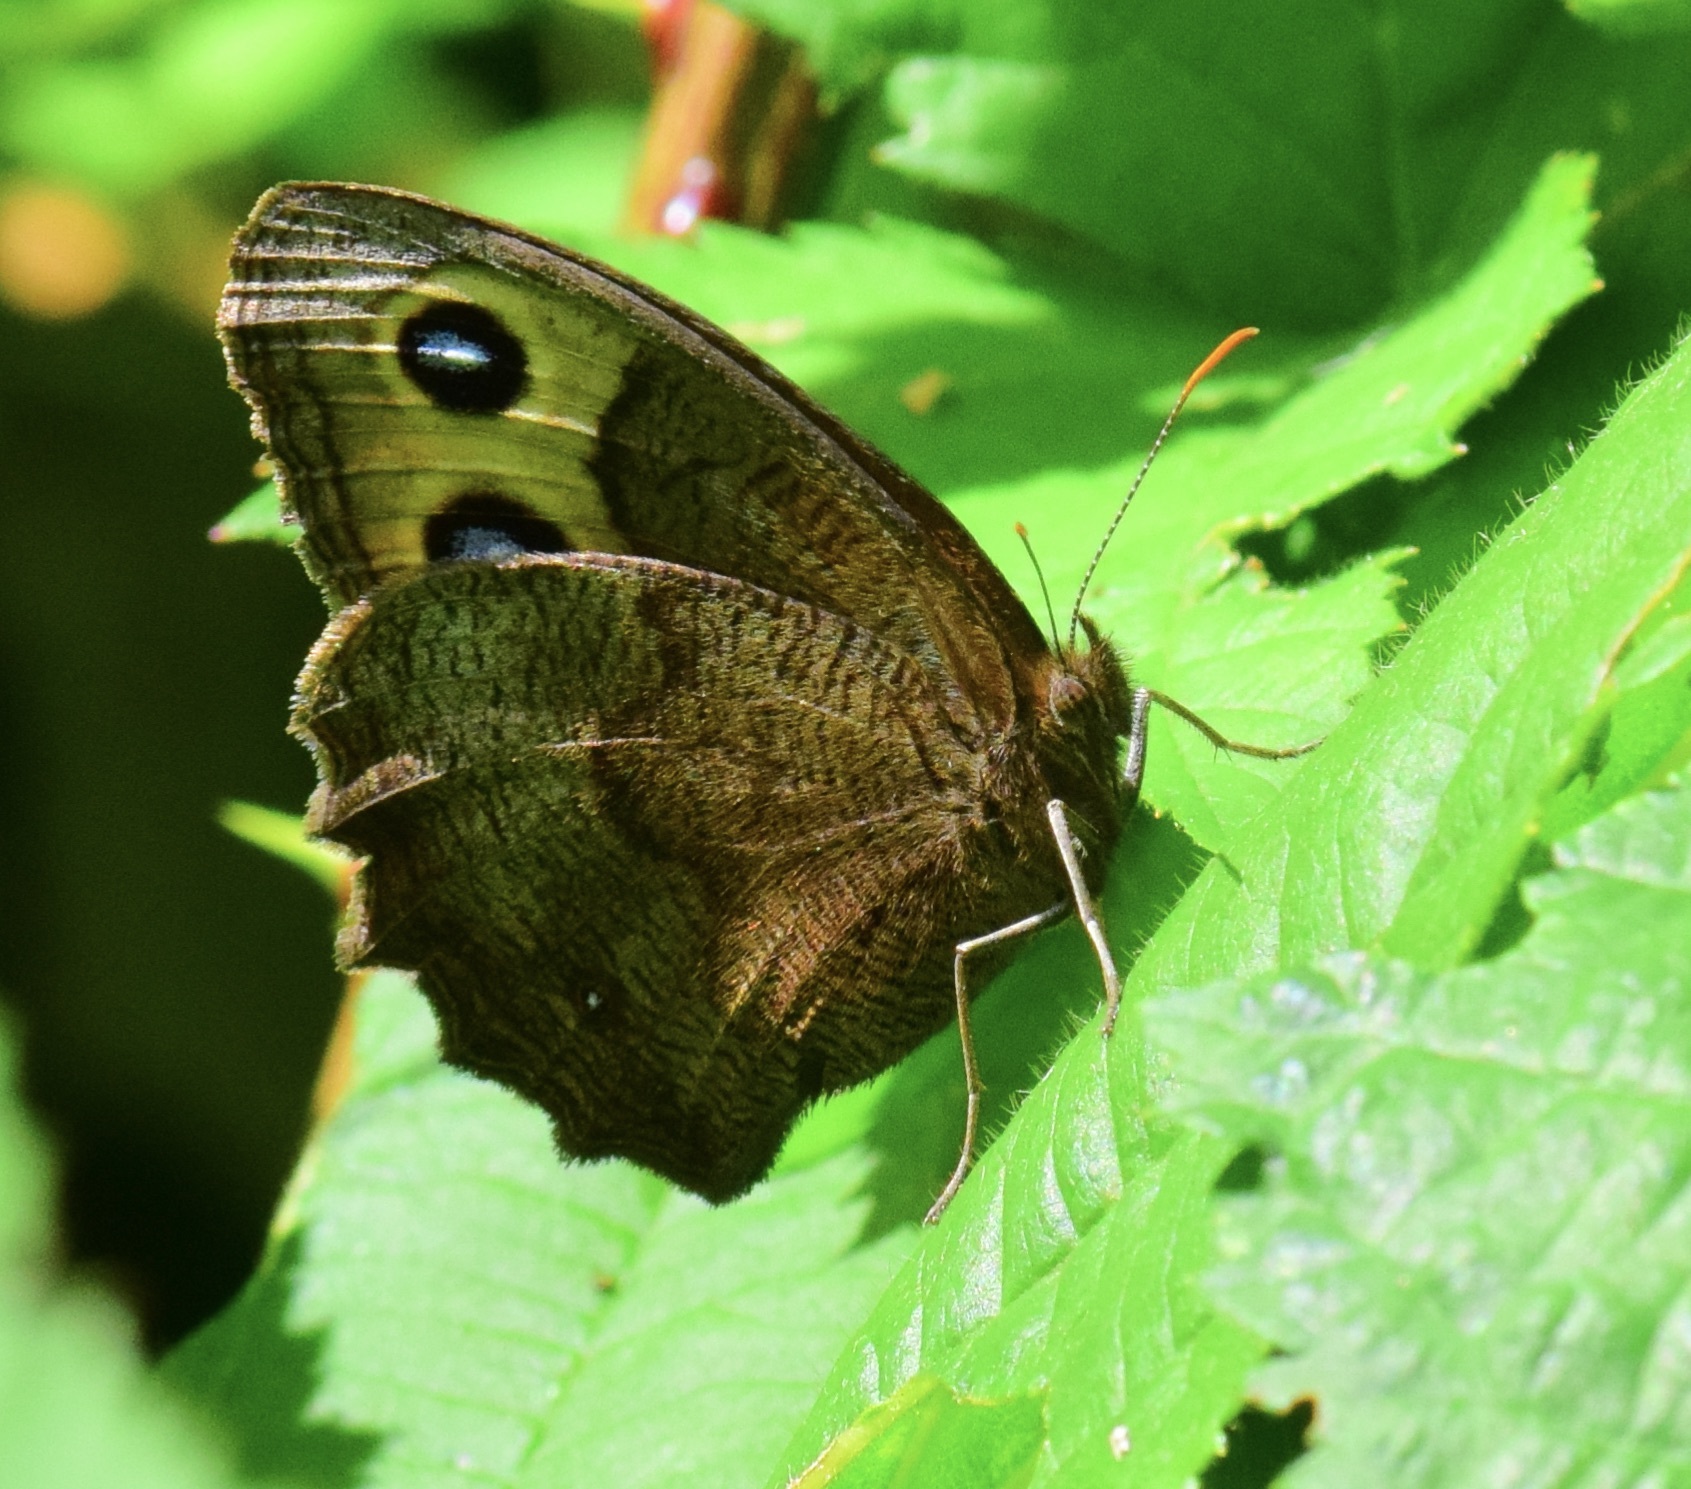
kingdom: Animalia
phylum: Arthropoda
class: Insecta
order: Lepidoptera
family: Nymphalidae
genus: Cercyonis
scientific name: Cercyonis pegala
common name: Common wood-nymph
